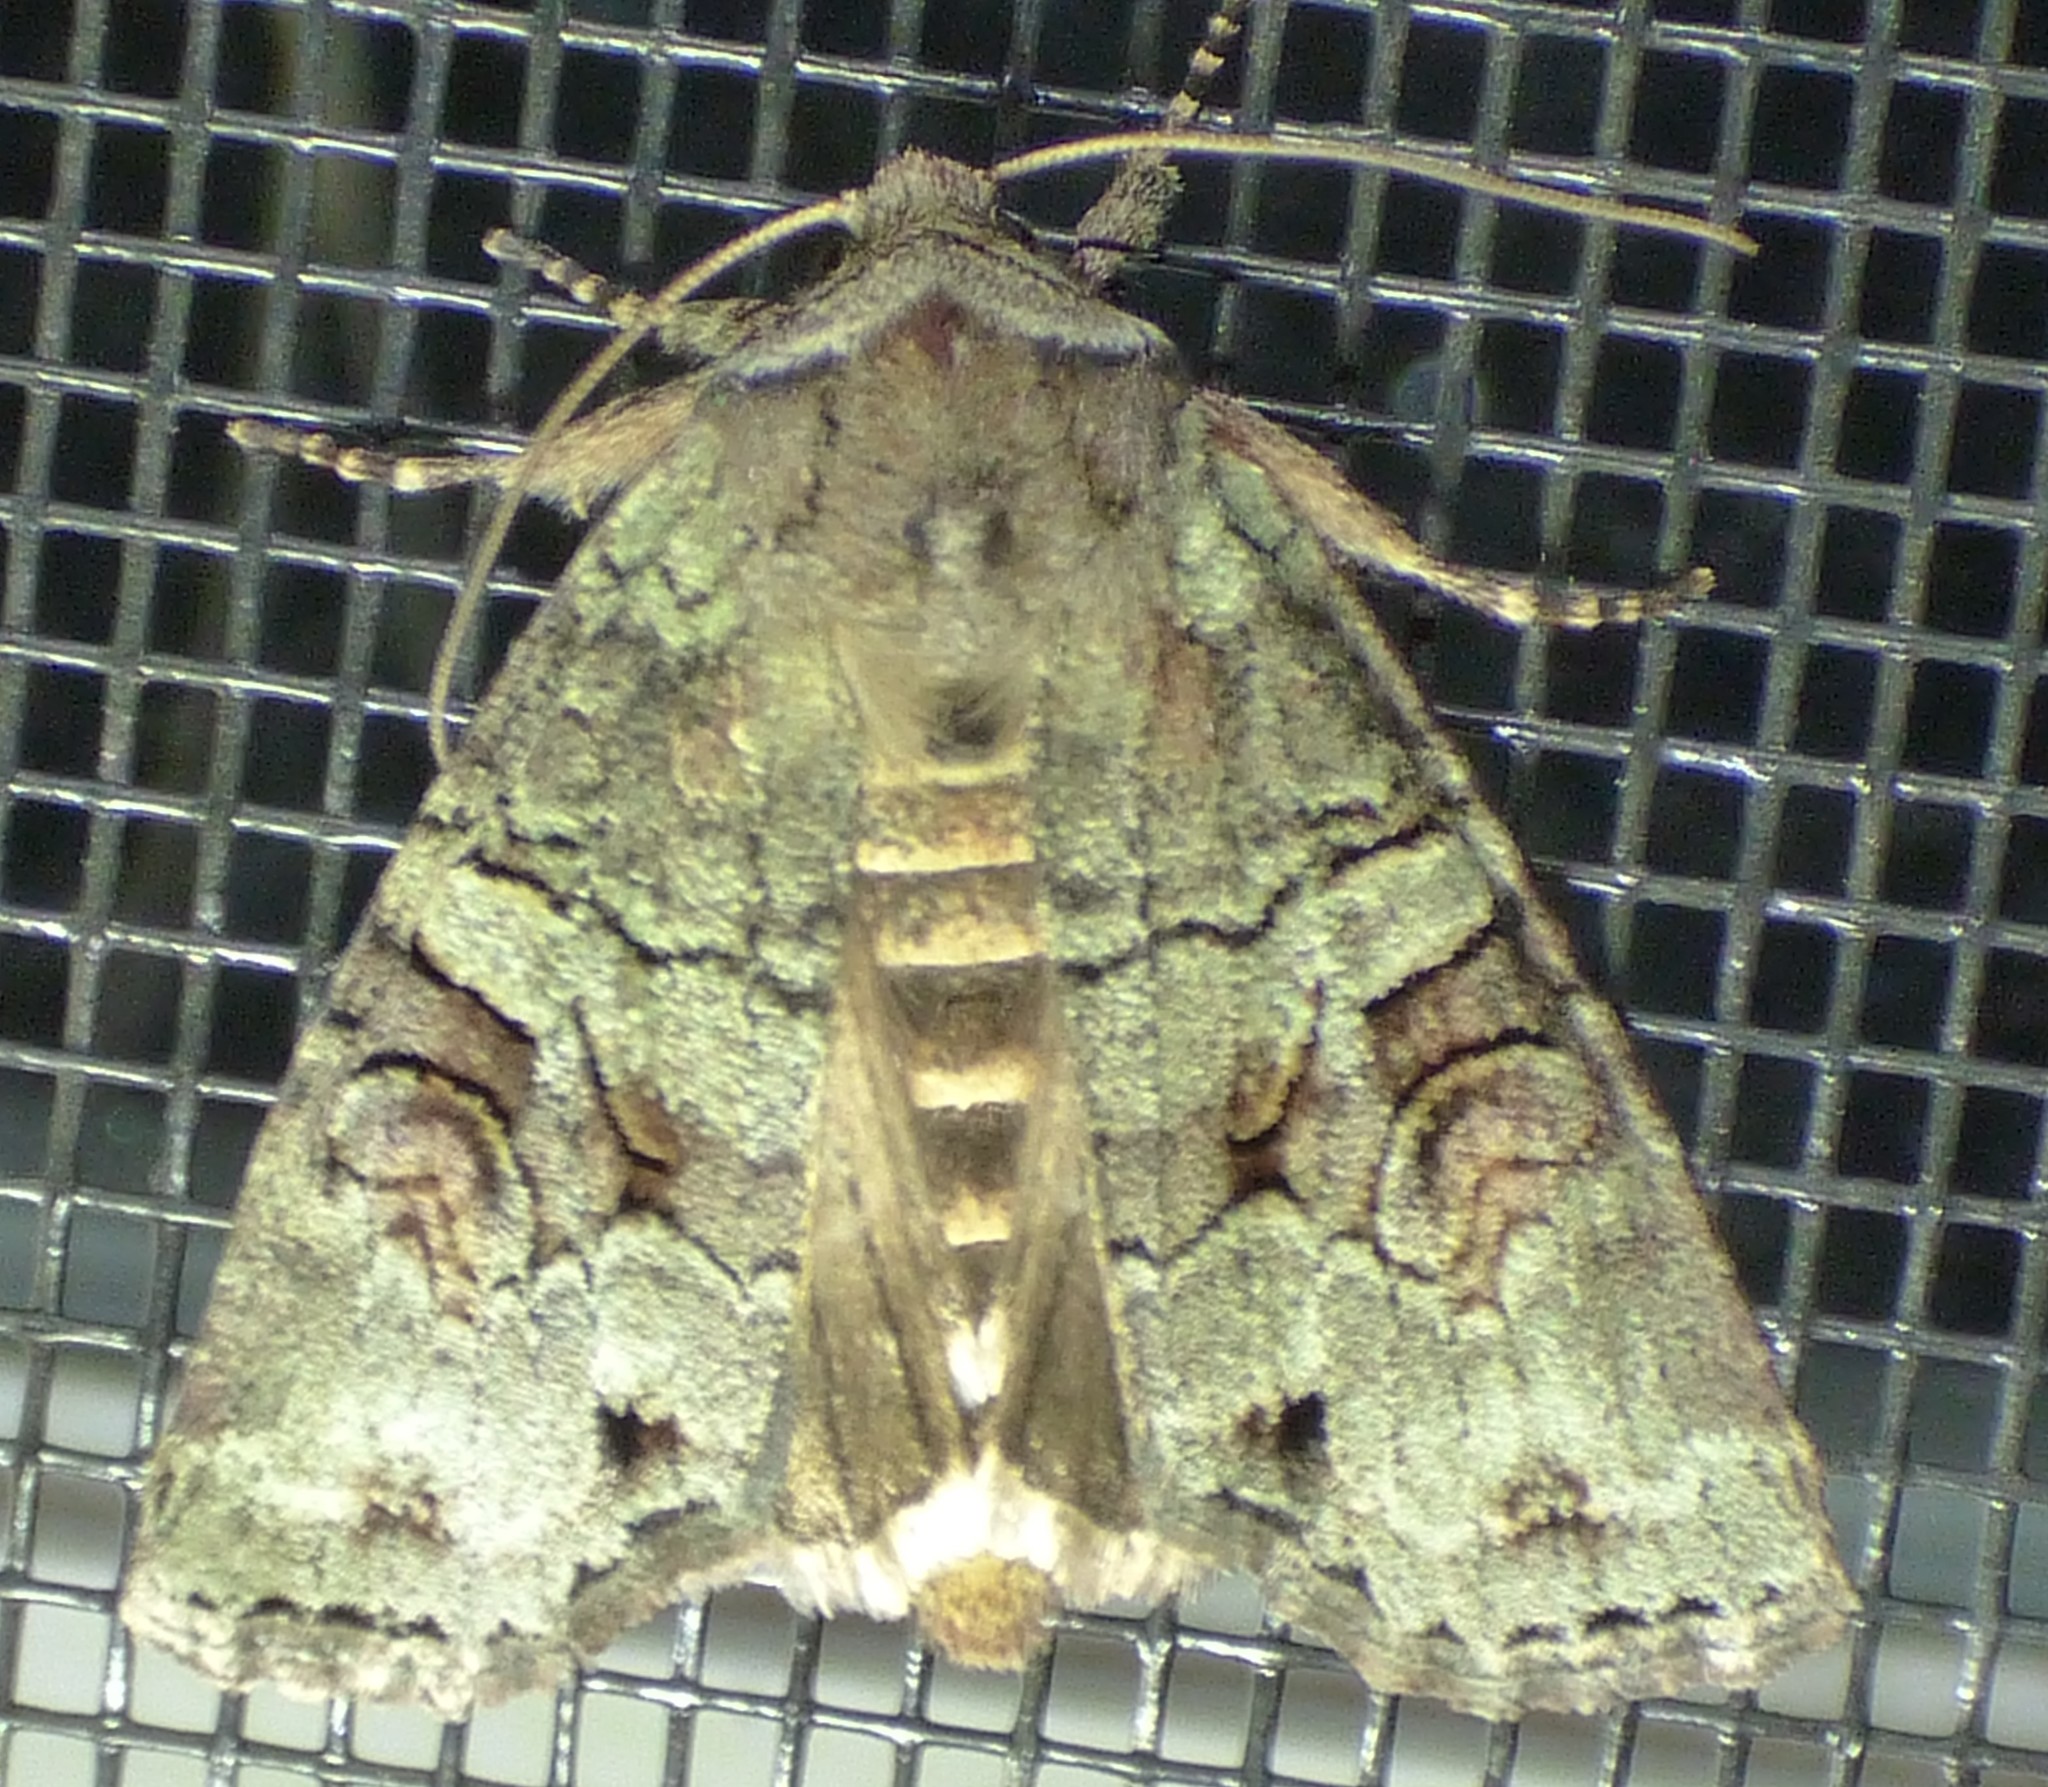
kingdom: Animalia
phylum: Arthropoda
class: Insecta
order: Lepidoptera
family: Noctuidae
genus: Egira
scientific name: Egira alternans
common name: Alternate woodling
